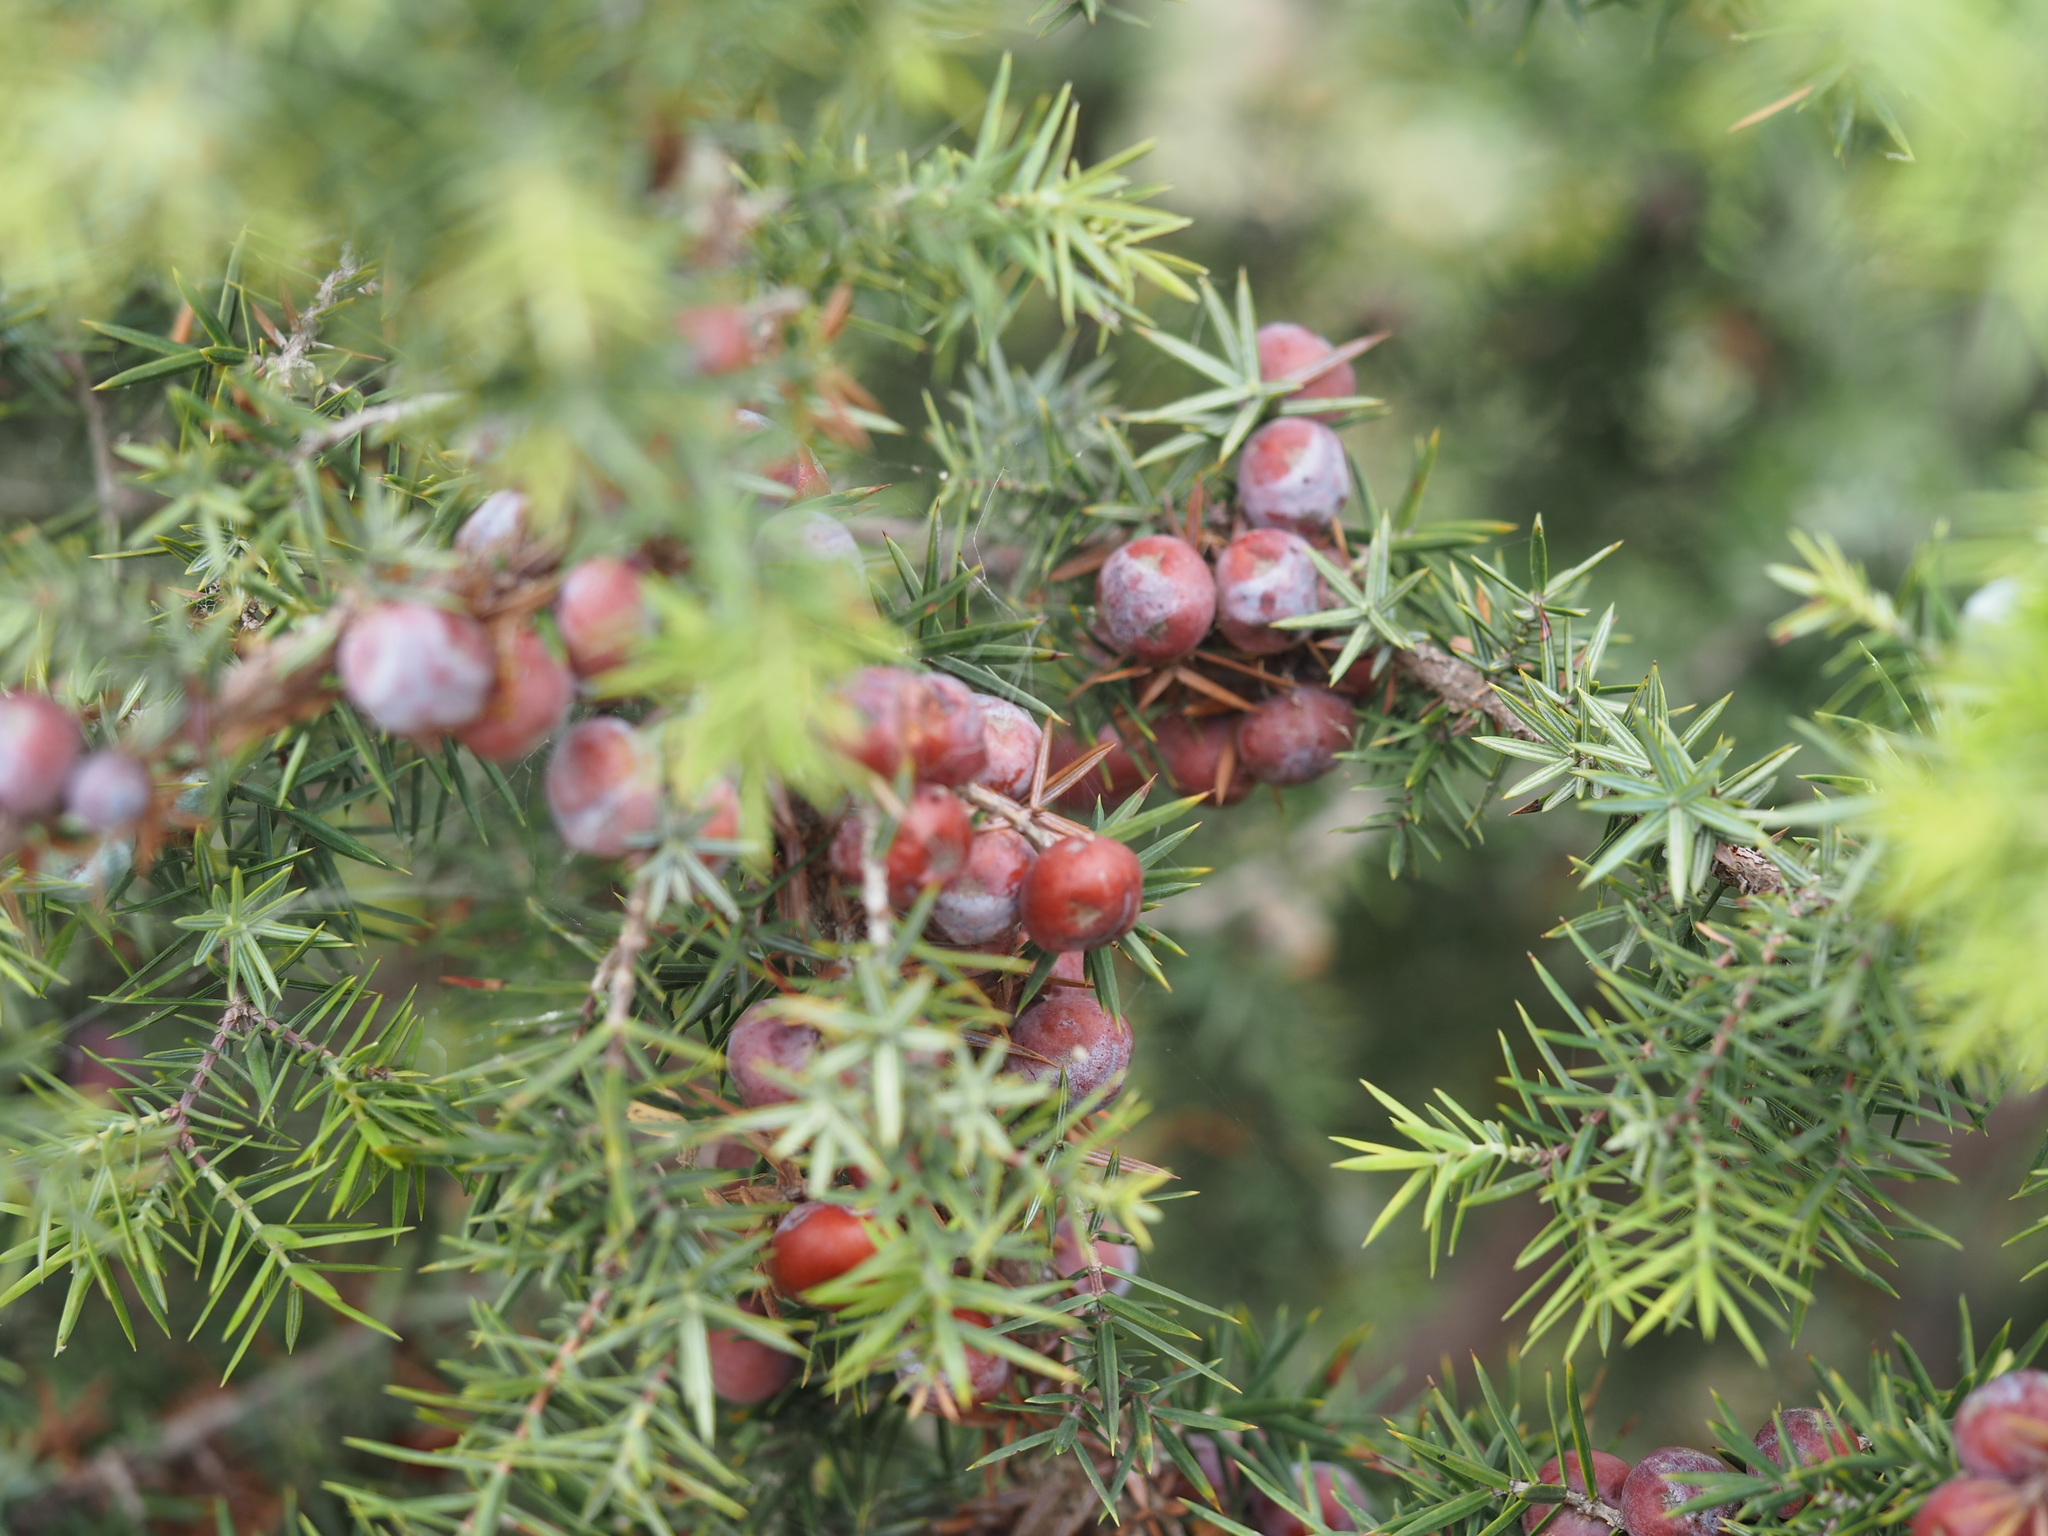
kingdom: Plantae
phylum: Tracheophyta
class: Pinopsida
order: Pinales
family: Cupressaceae
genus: Juniperus
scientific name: Juniperus oxycedrus
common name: Prickly juniper
